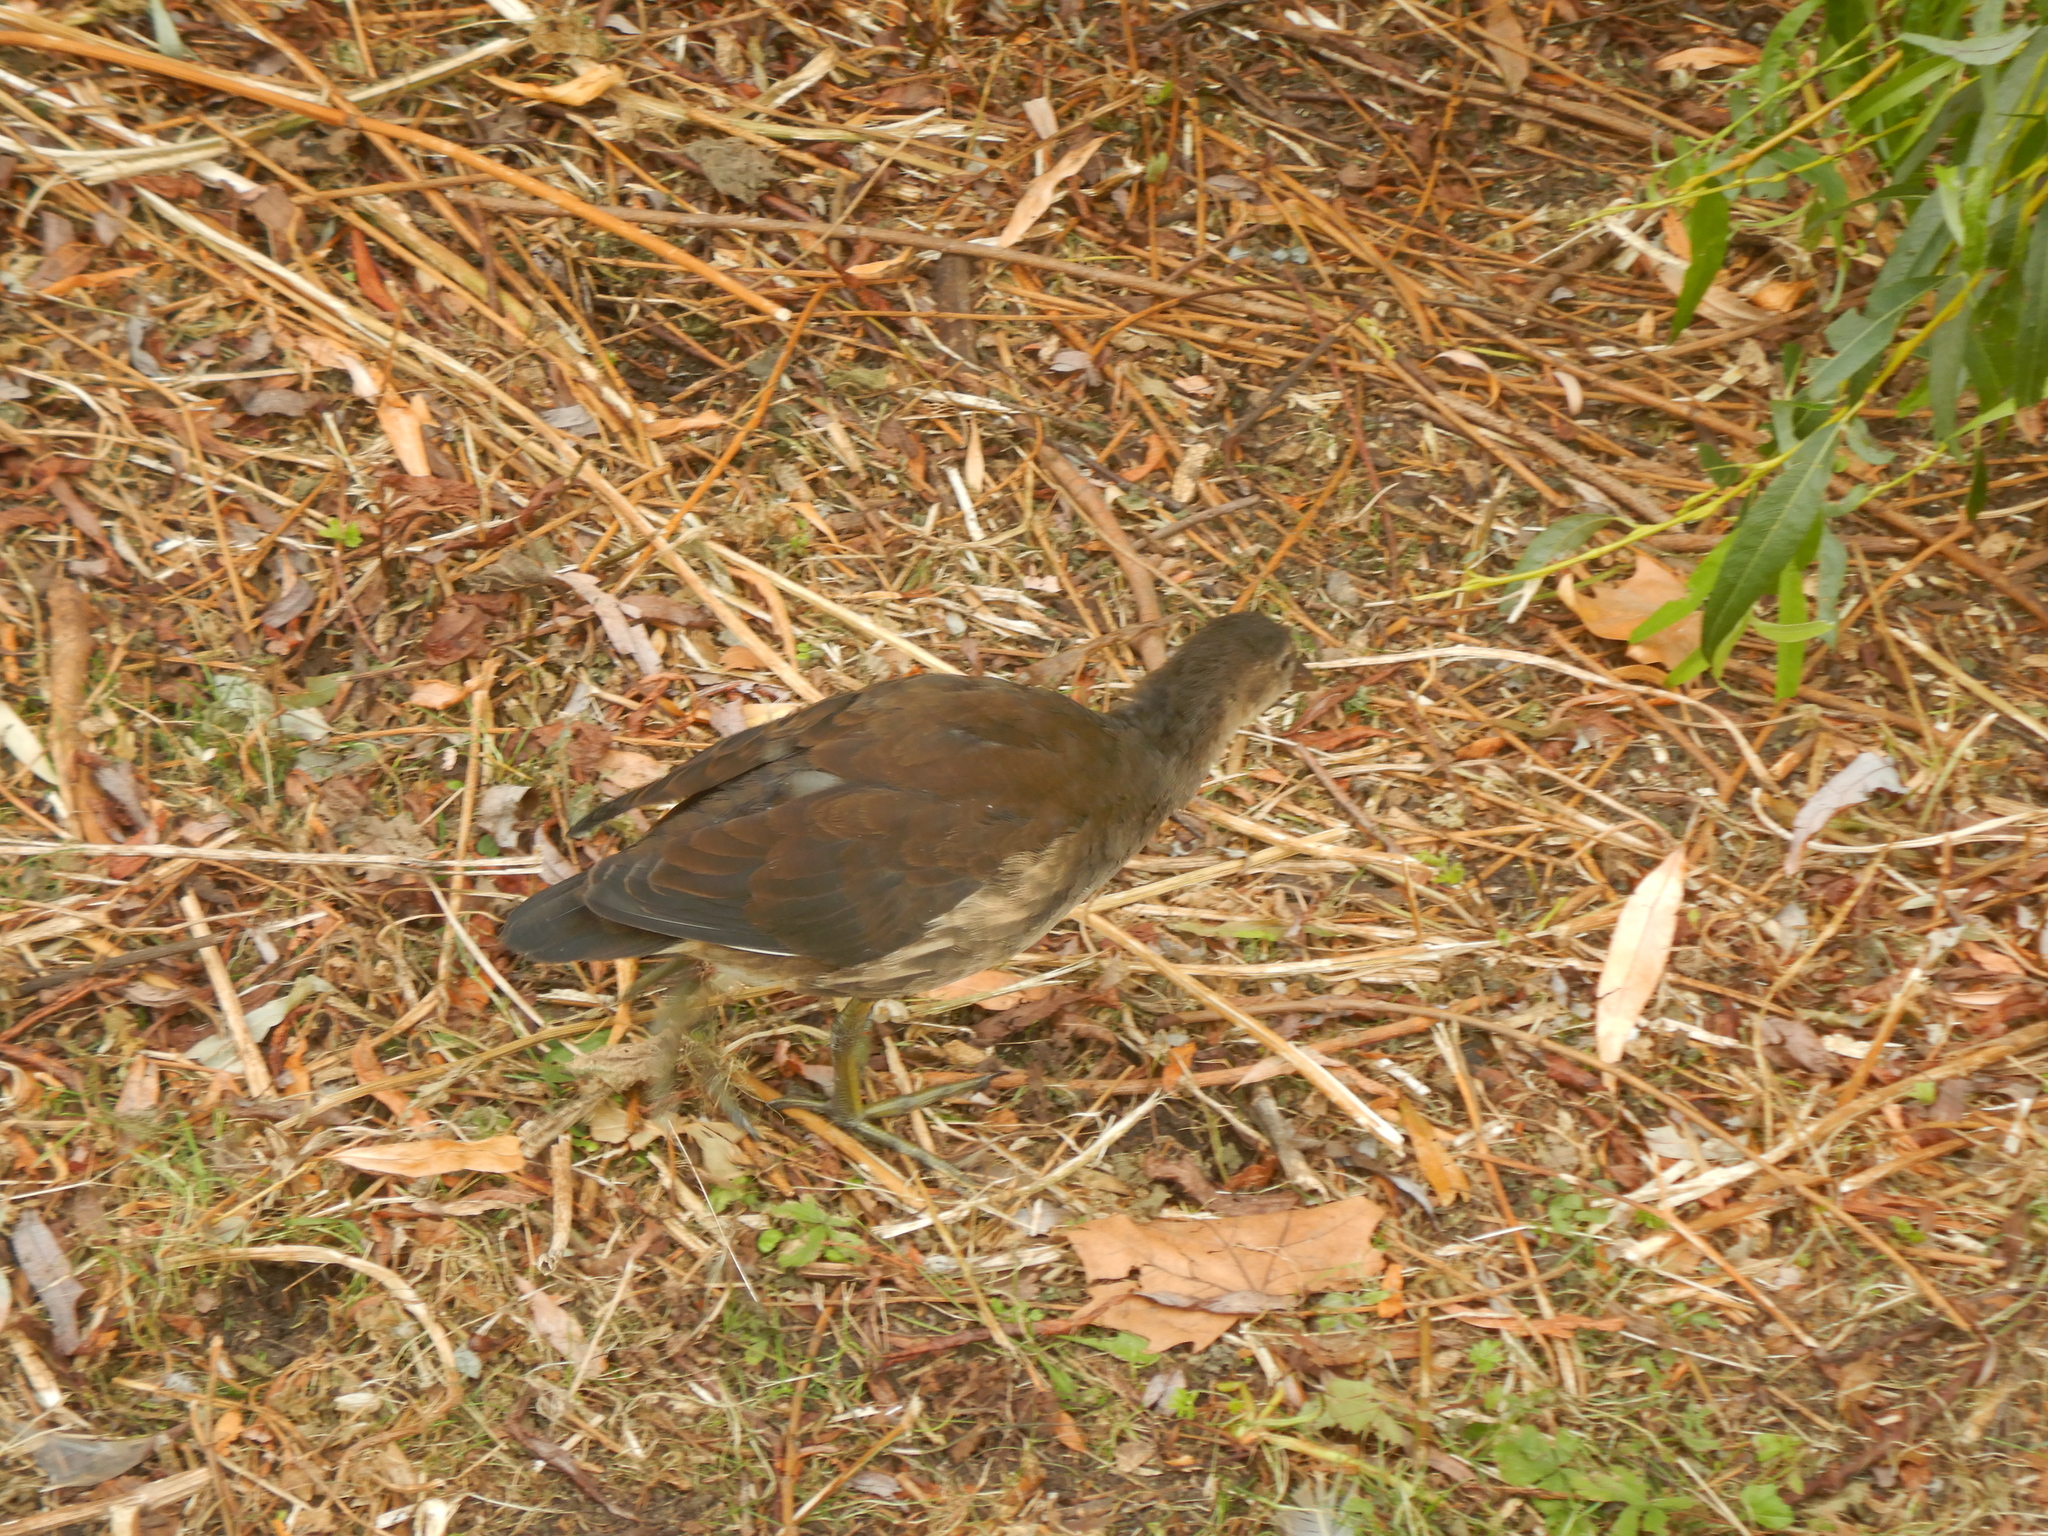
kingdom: Animalia
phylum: Chordata
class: Aves
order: Gruiformes
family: Rallidae
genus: Gallinula
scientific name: Gallinula chloropus
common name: Common moorhen
